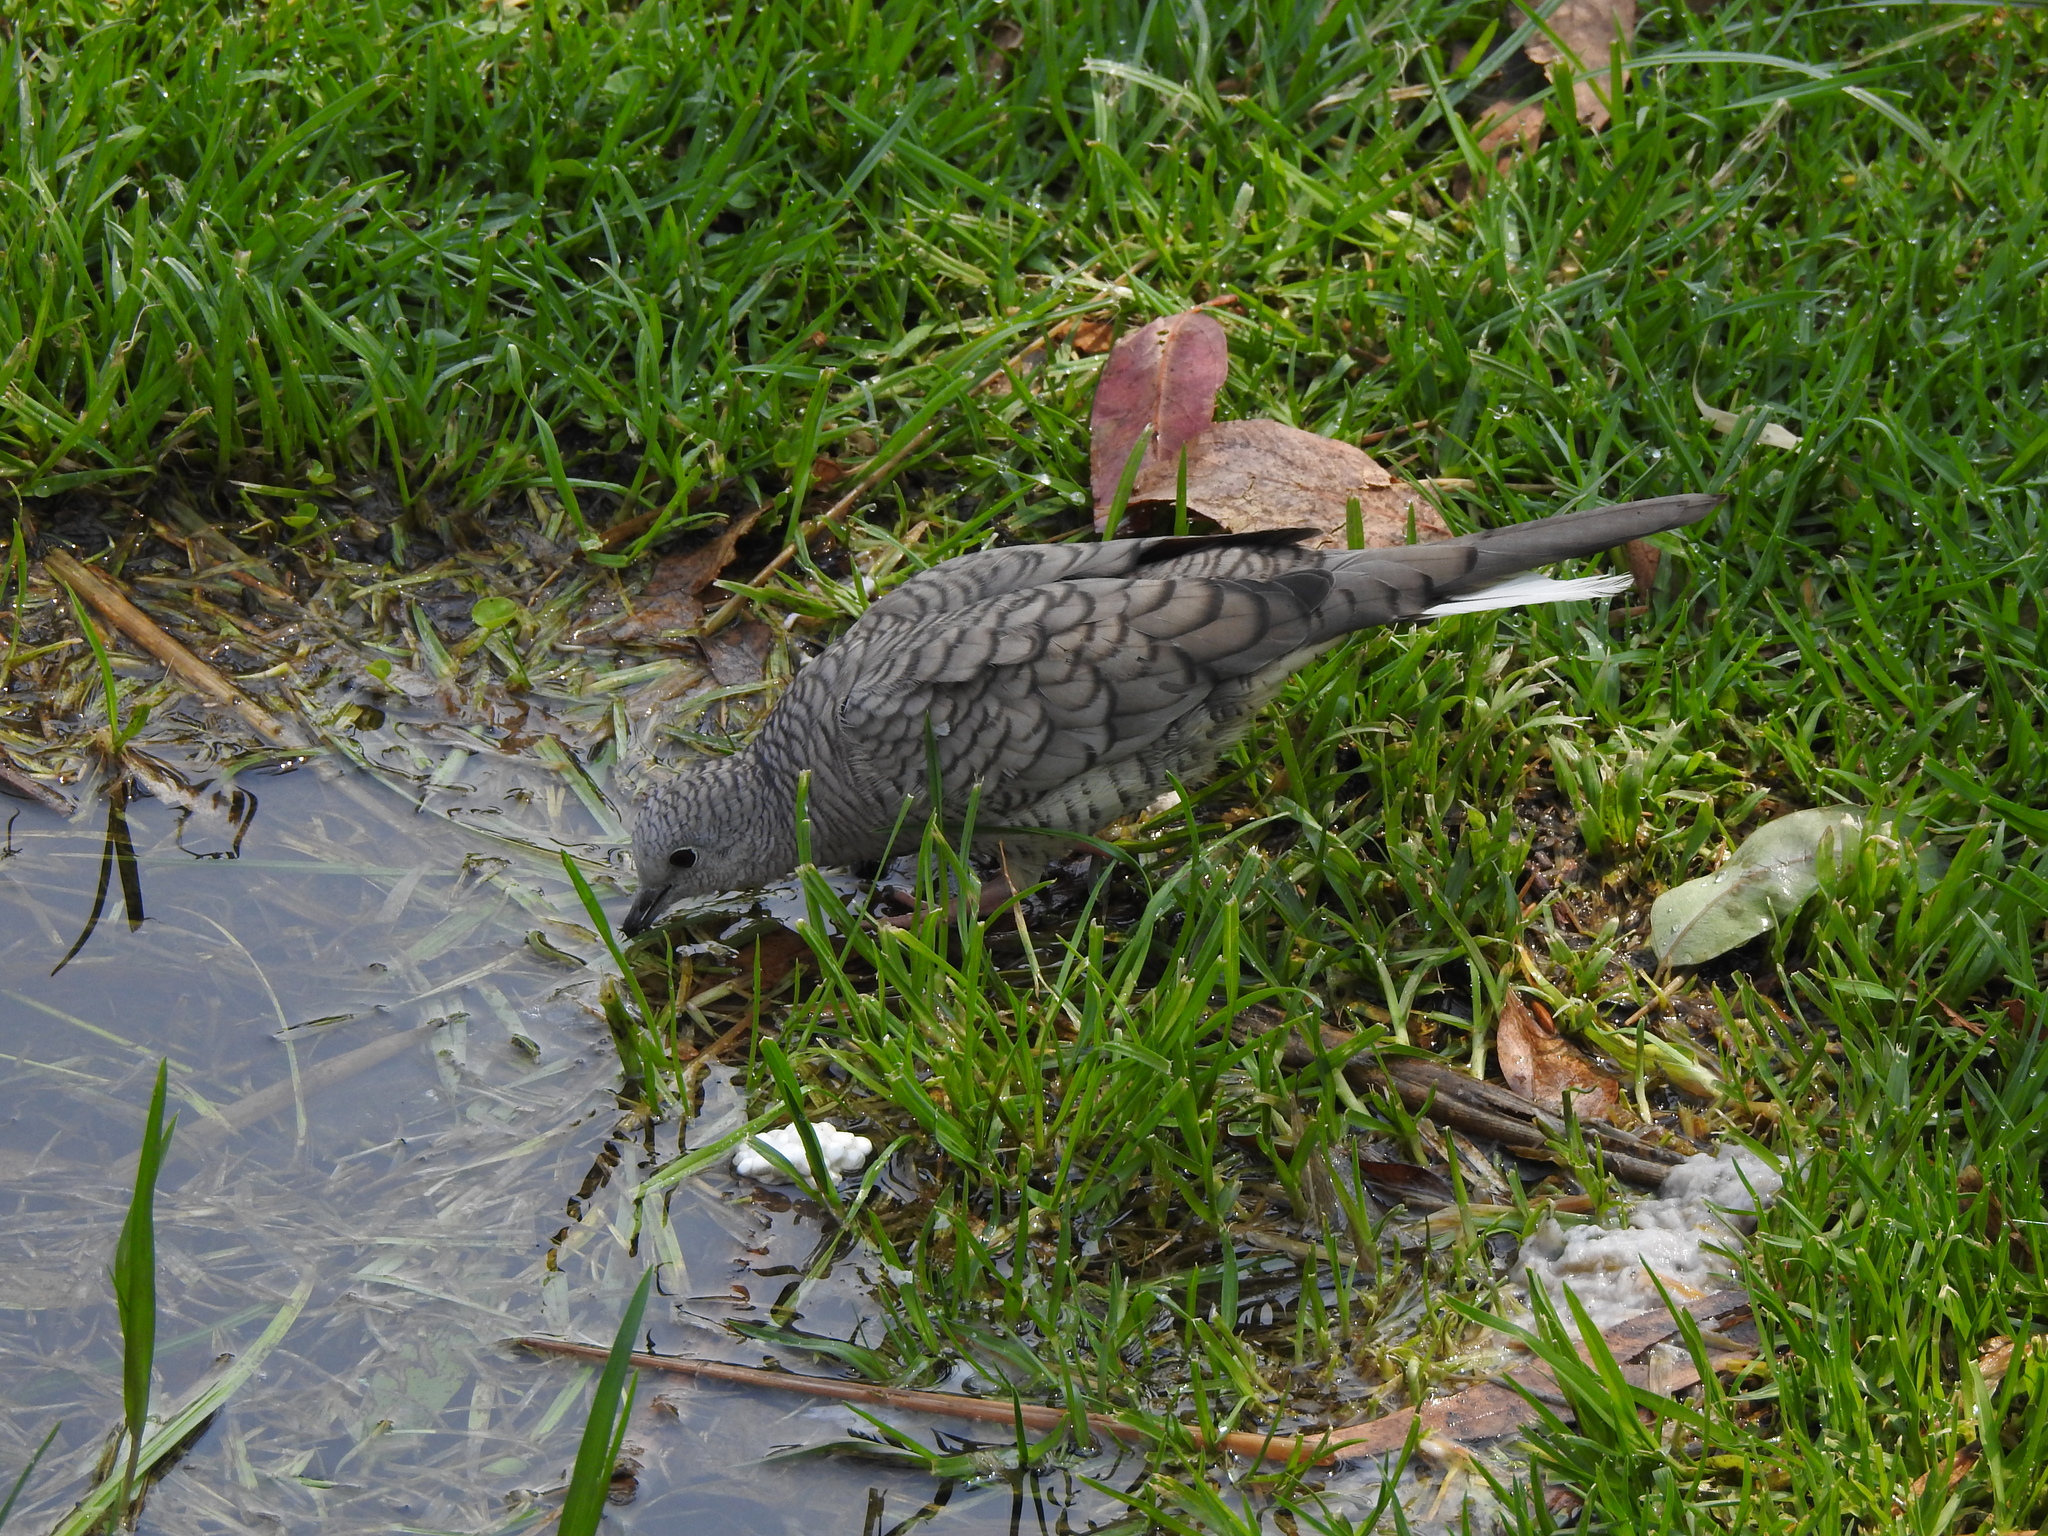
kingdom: Animalia
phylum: Chordata
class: Aves
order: Columbiformes
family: Columbidae
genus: Columbina
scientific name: Columbina inca
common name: Inca dove
